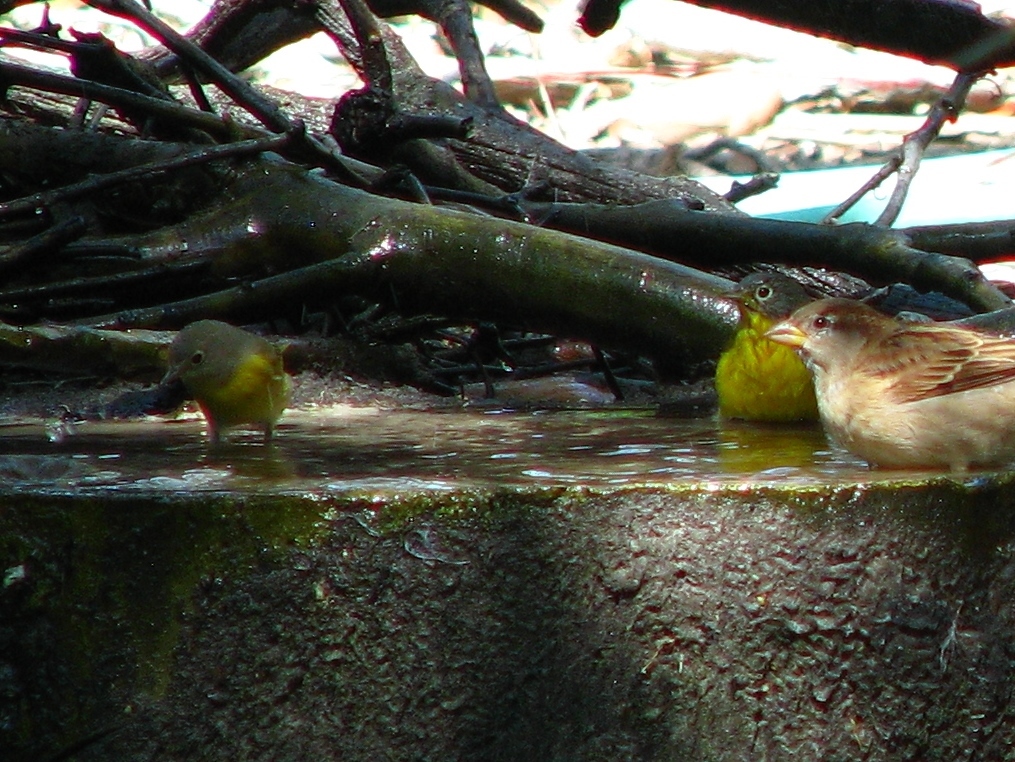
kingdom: Animalia
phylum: Chordata
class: Aves
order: Passeriformes
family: Parulidae
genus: Leiothlypis
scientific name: Leiothlypis ruficapilla
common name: Nashville warbler
